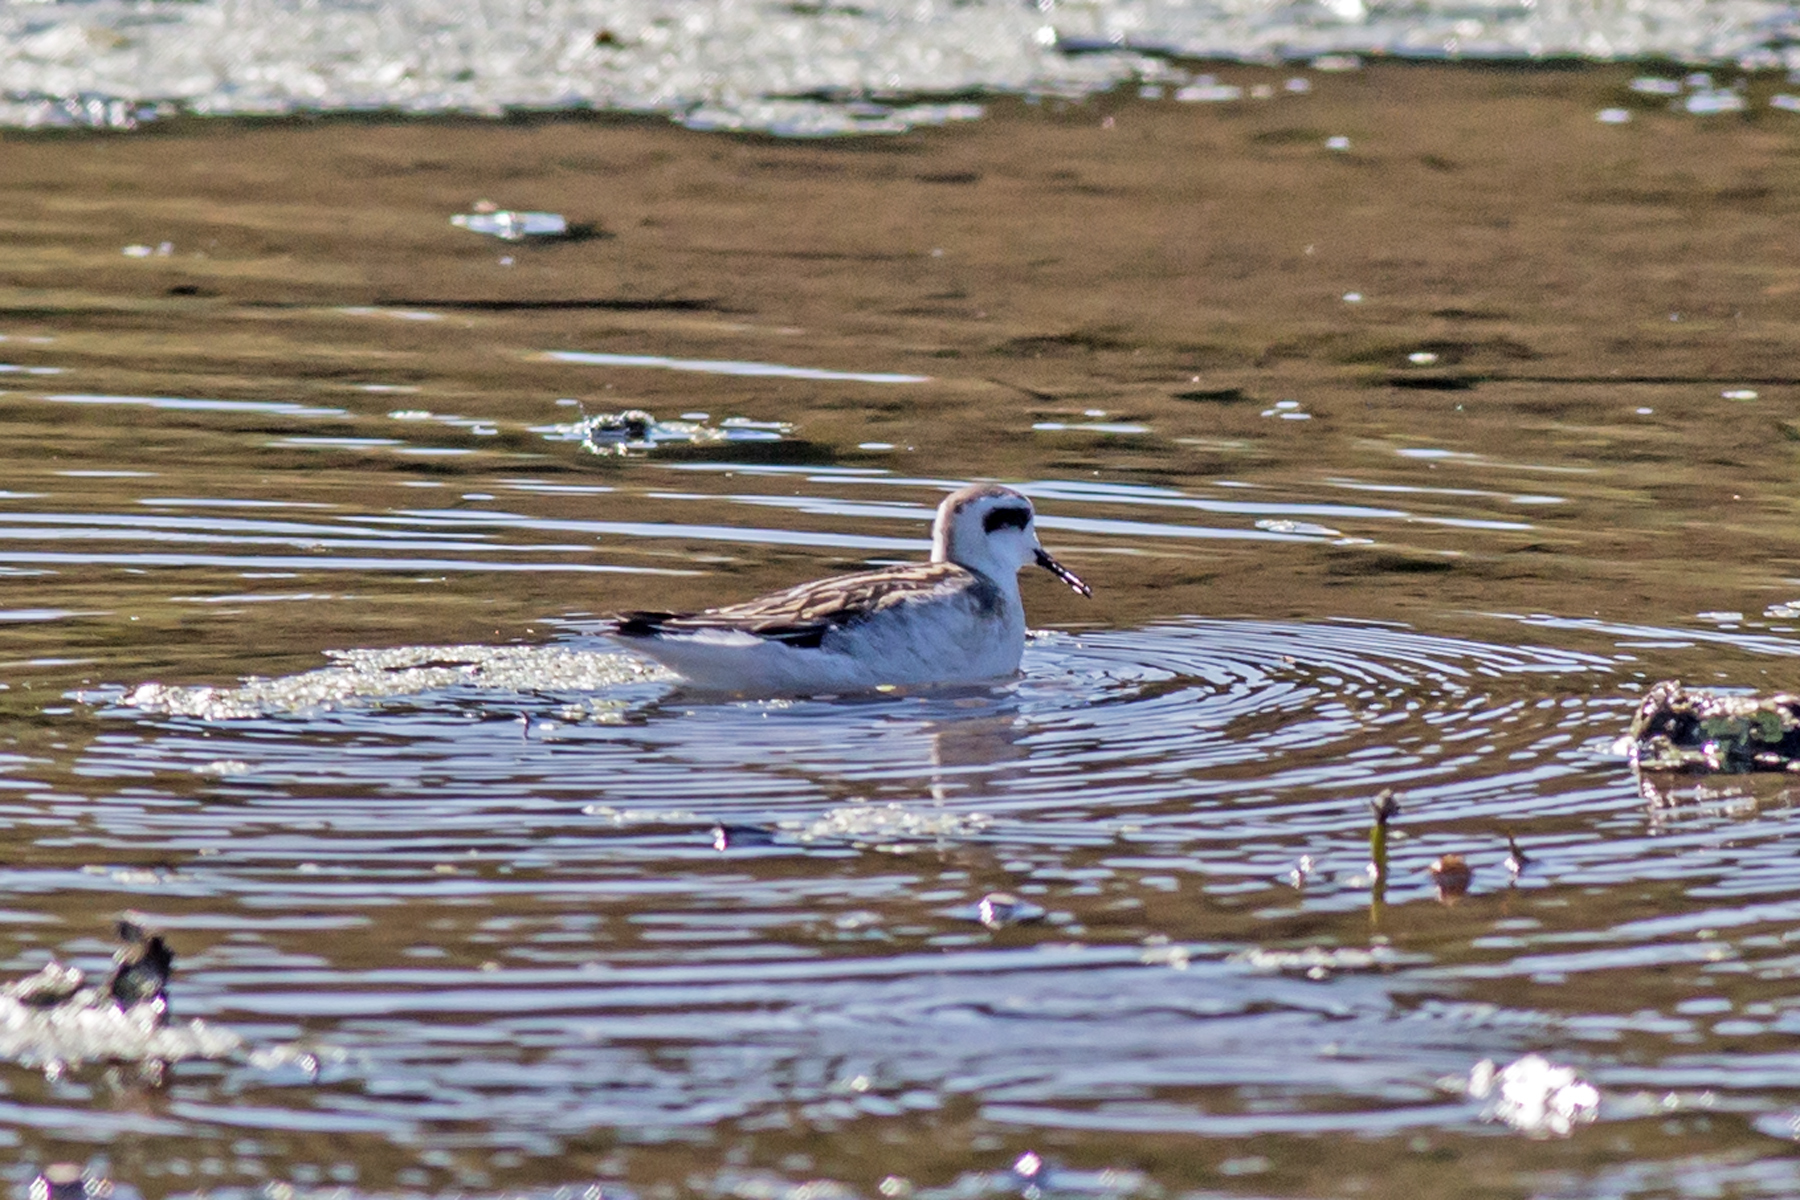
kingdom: Animalia
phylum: Chordata
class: Aves
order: Charadriiformes
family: Scolopacidae
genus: Phalaropus
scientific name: Phalaropus lobatus
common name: Red-necked phalarope
